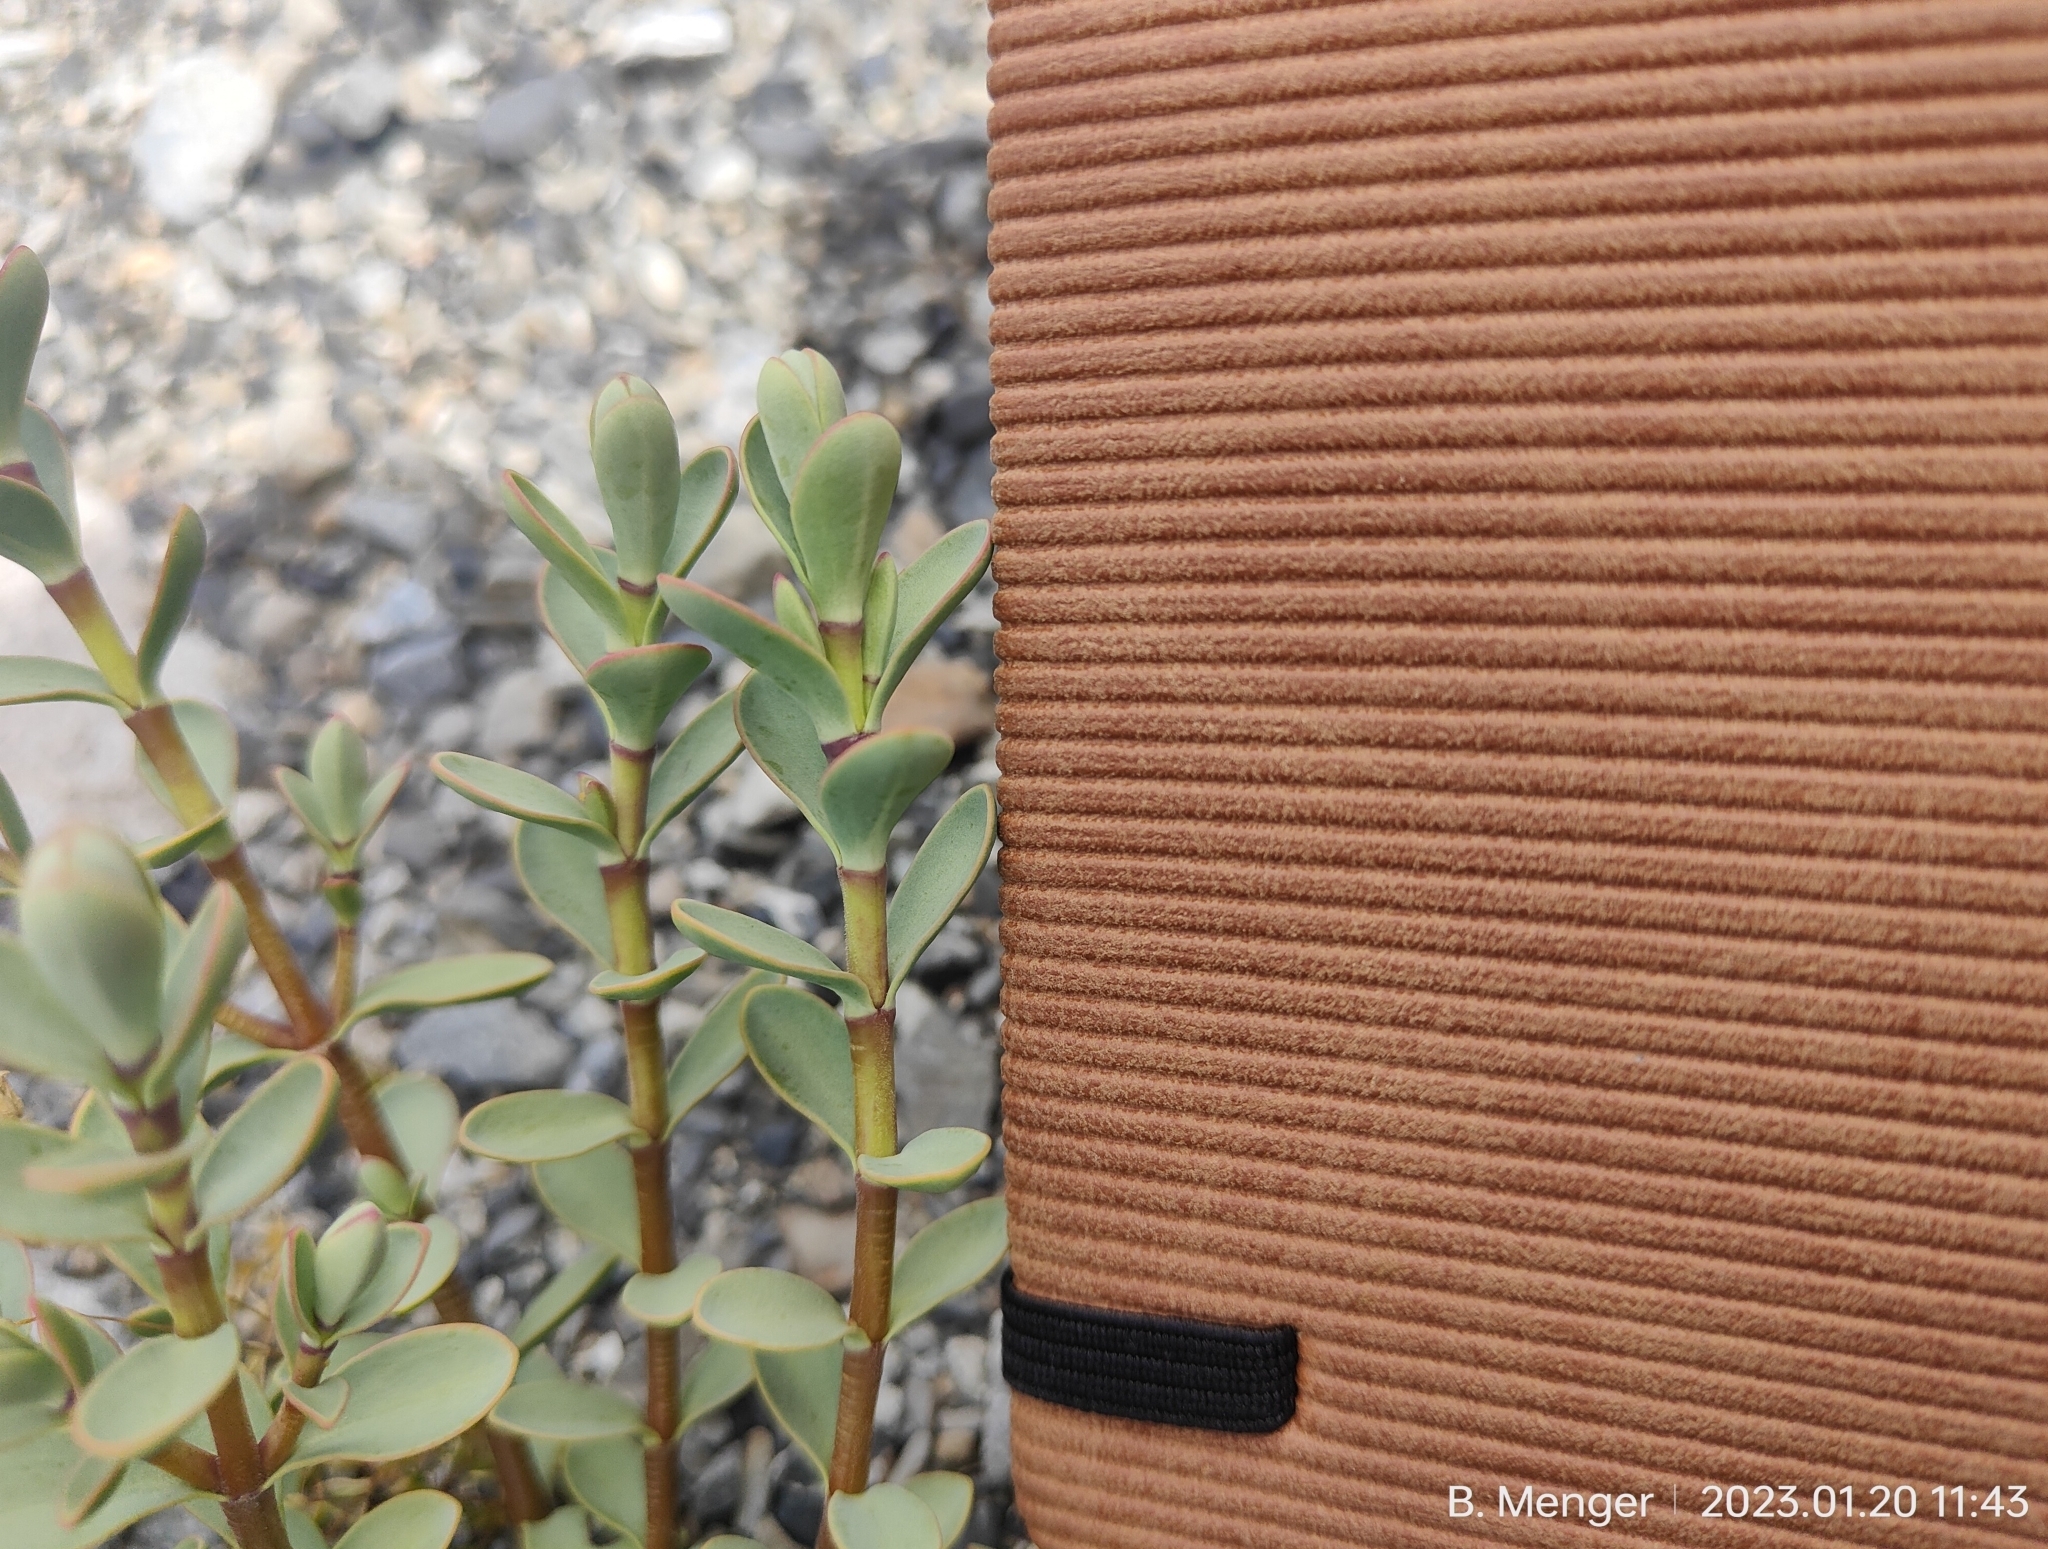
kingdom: Plantae
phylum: Tracheophyta
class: Magnoliopsida
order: Lamiales
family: Plantaginaceae
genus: Veronica
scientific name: Veronica pinguifolia
